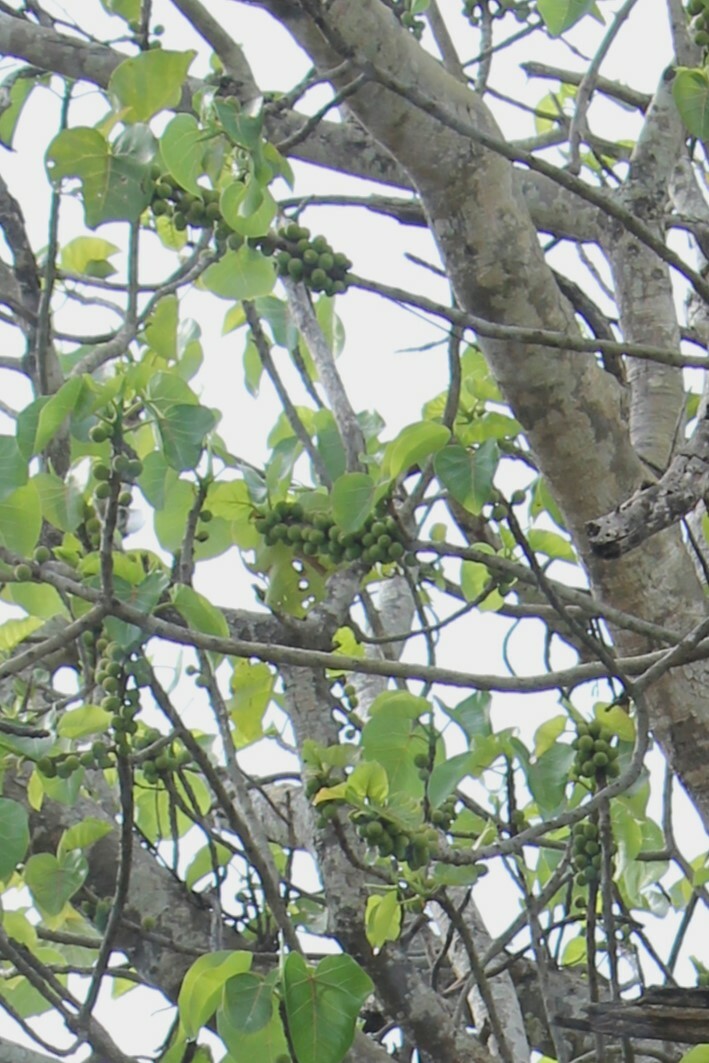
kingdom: Plantae
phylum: Tracheophyta
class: Magnoliopsida
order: Rosales
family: Moraceae
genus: Ficus
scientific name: Ficus abutilifolia
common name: Large-leaved rock fig
